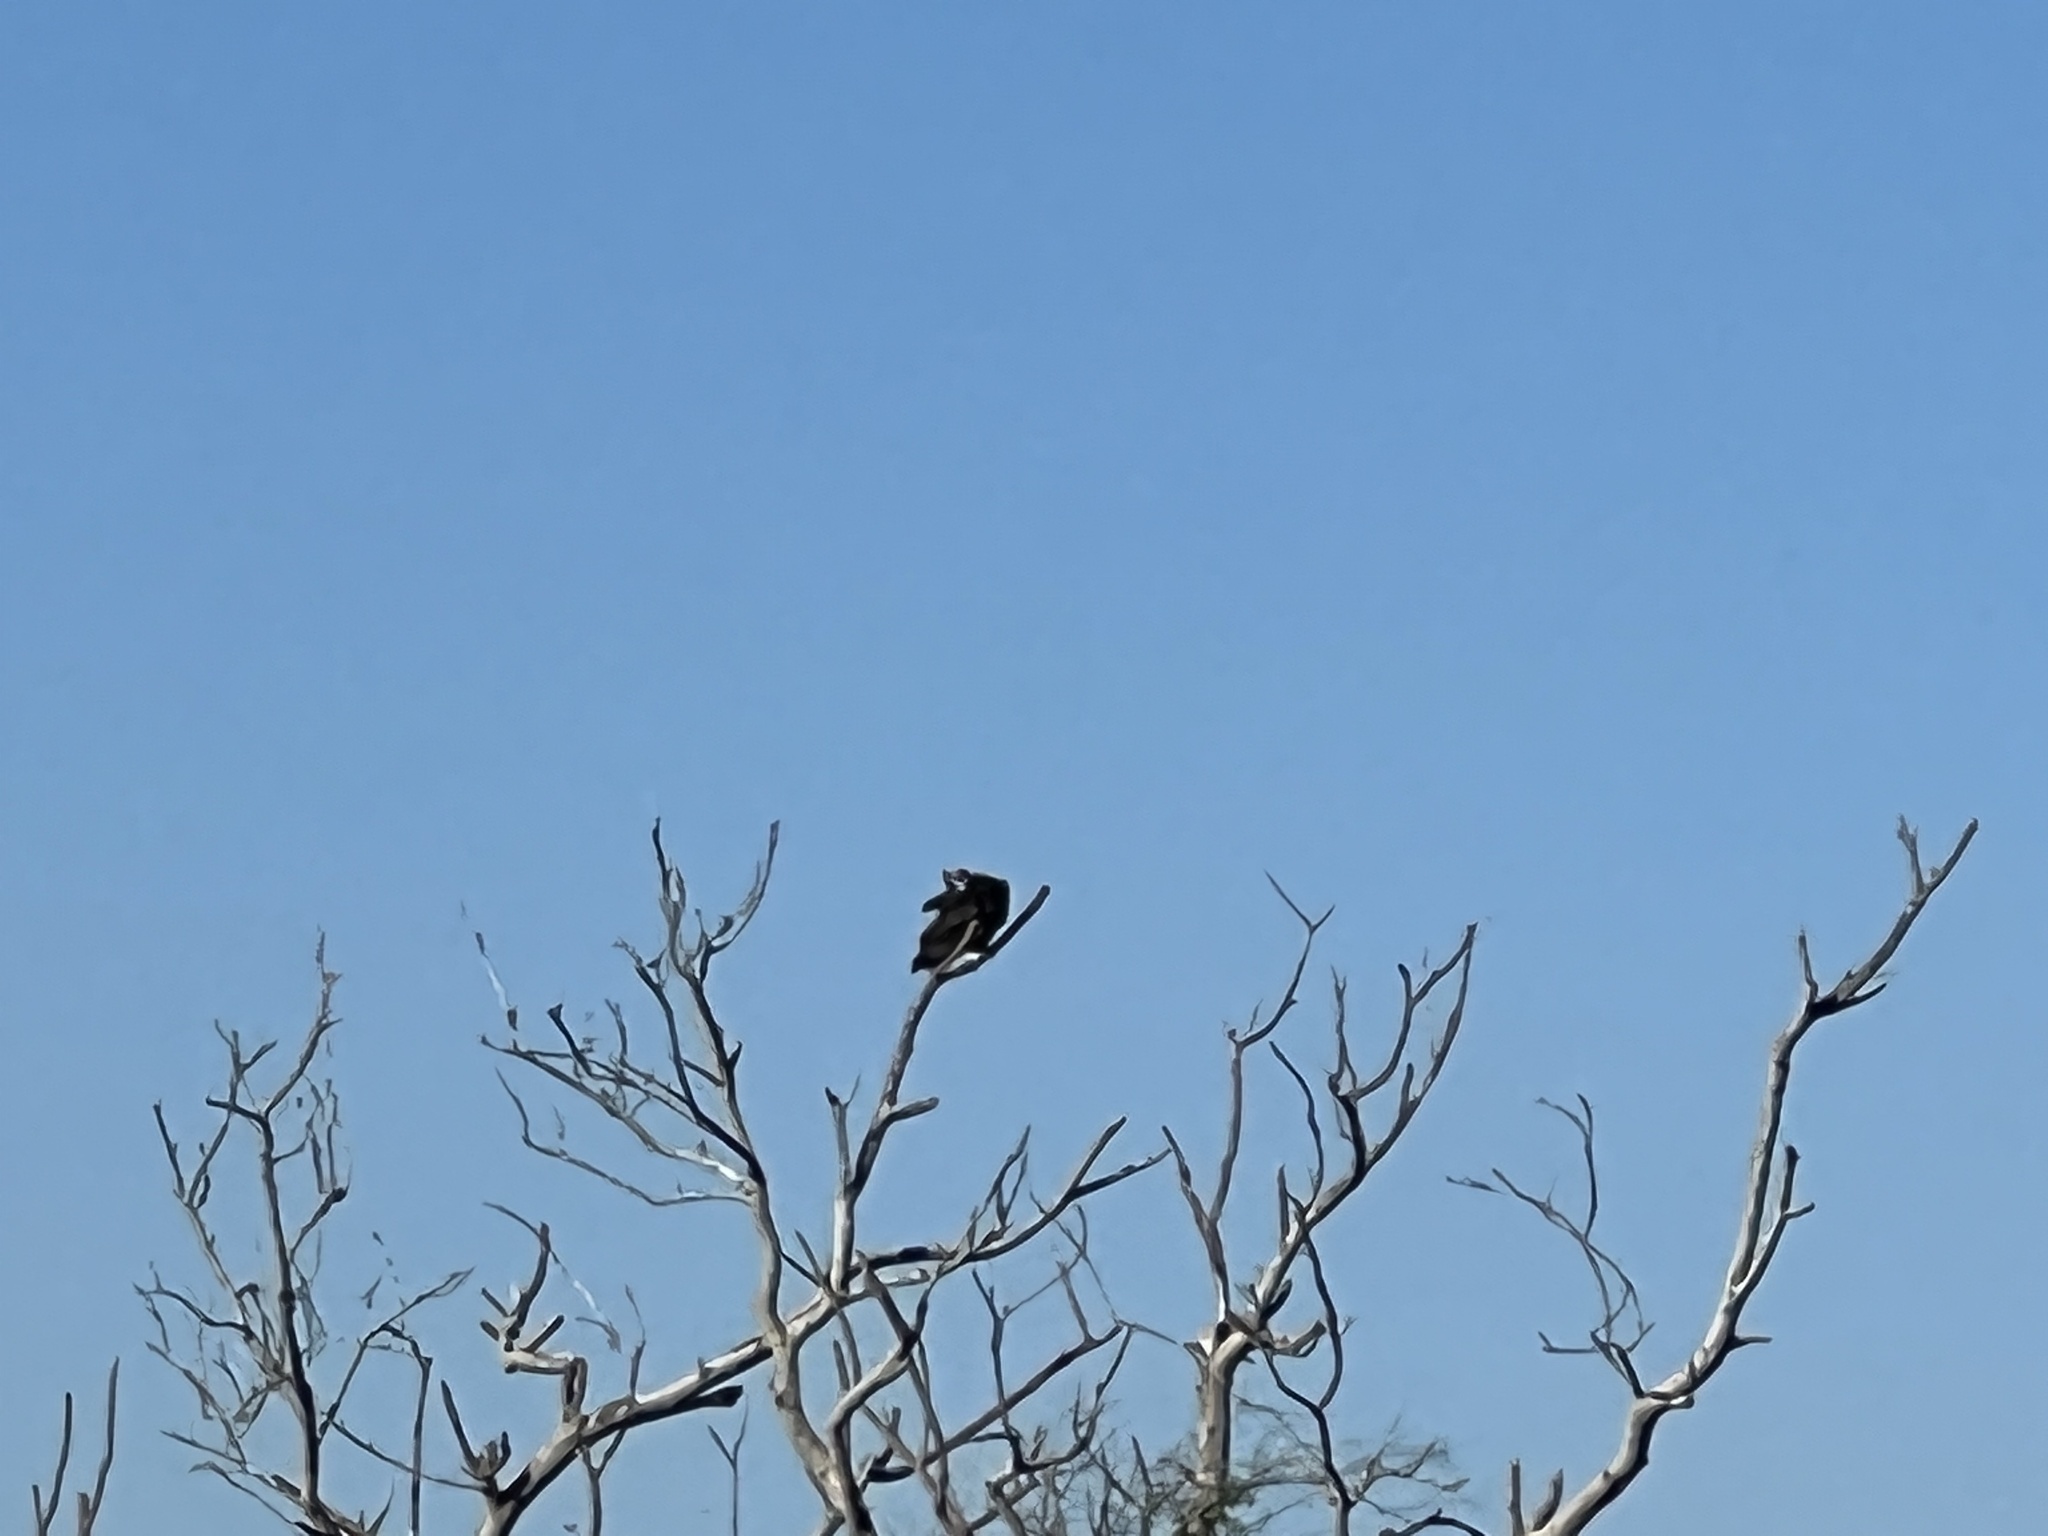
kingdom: Animalia
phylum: Chordata
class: Aves
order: Accipitriformes
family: Cathartidae
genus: Cathartes
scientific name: Cathartes aura
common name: Turkey vulture
